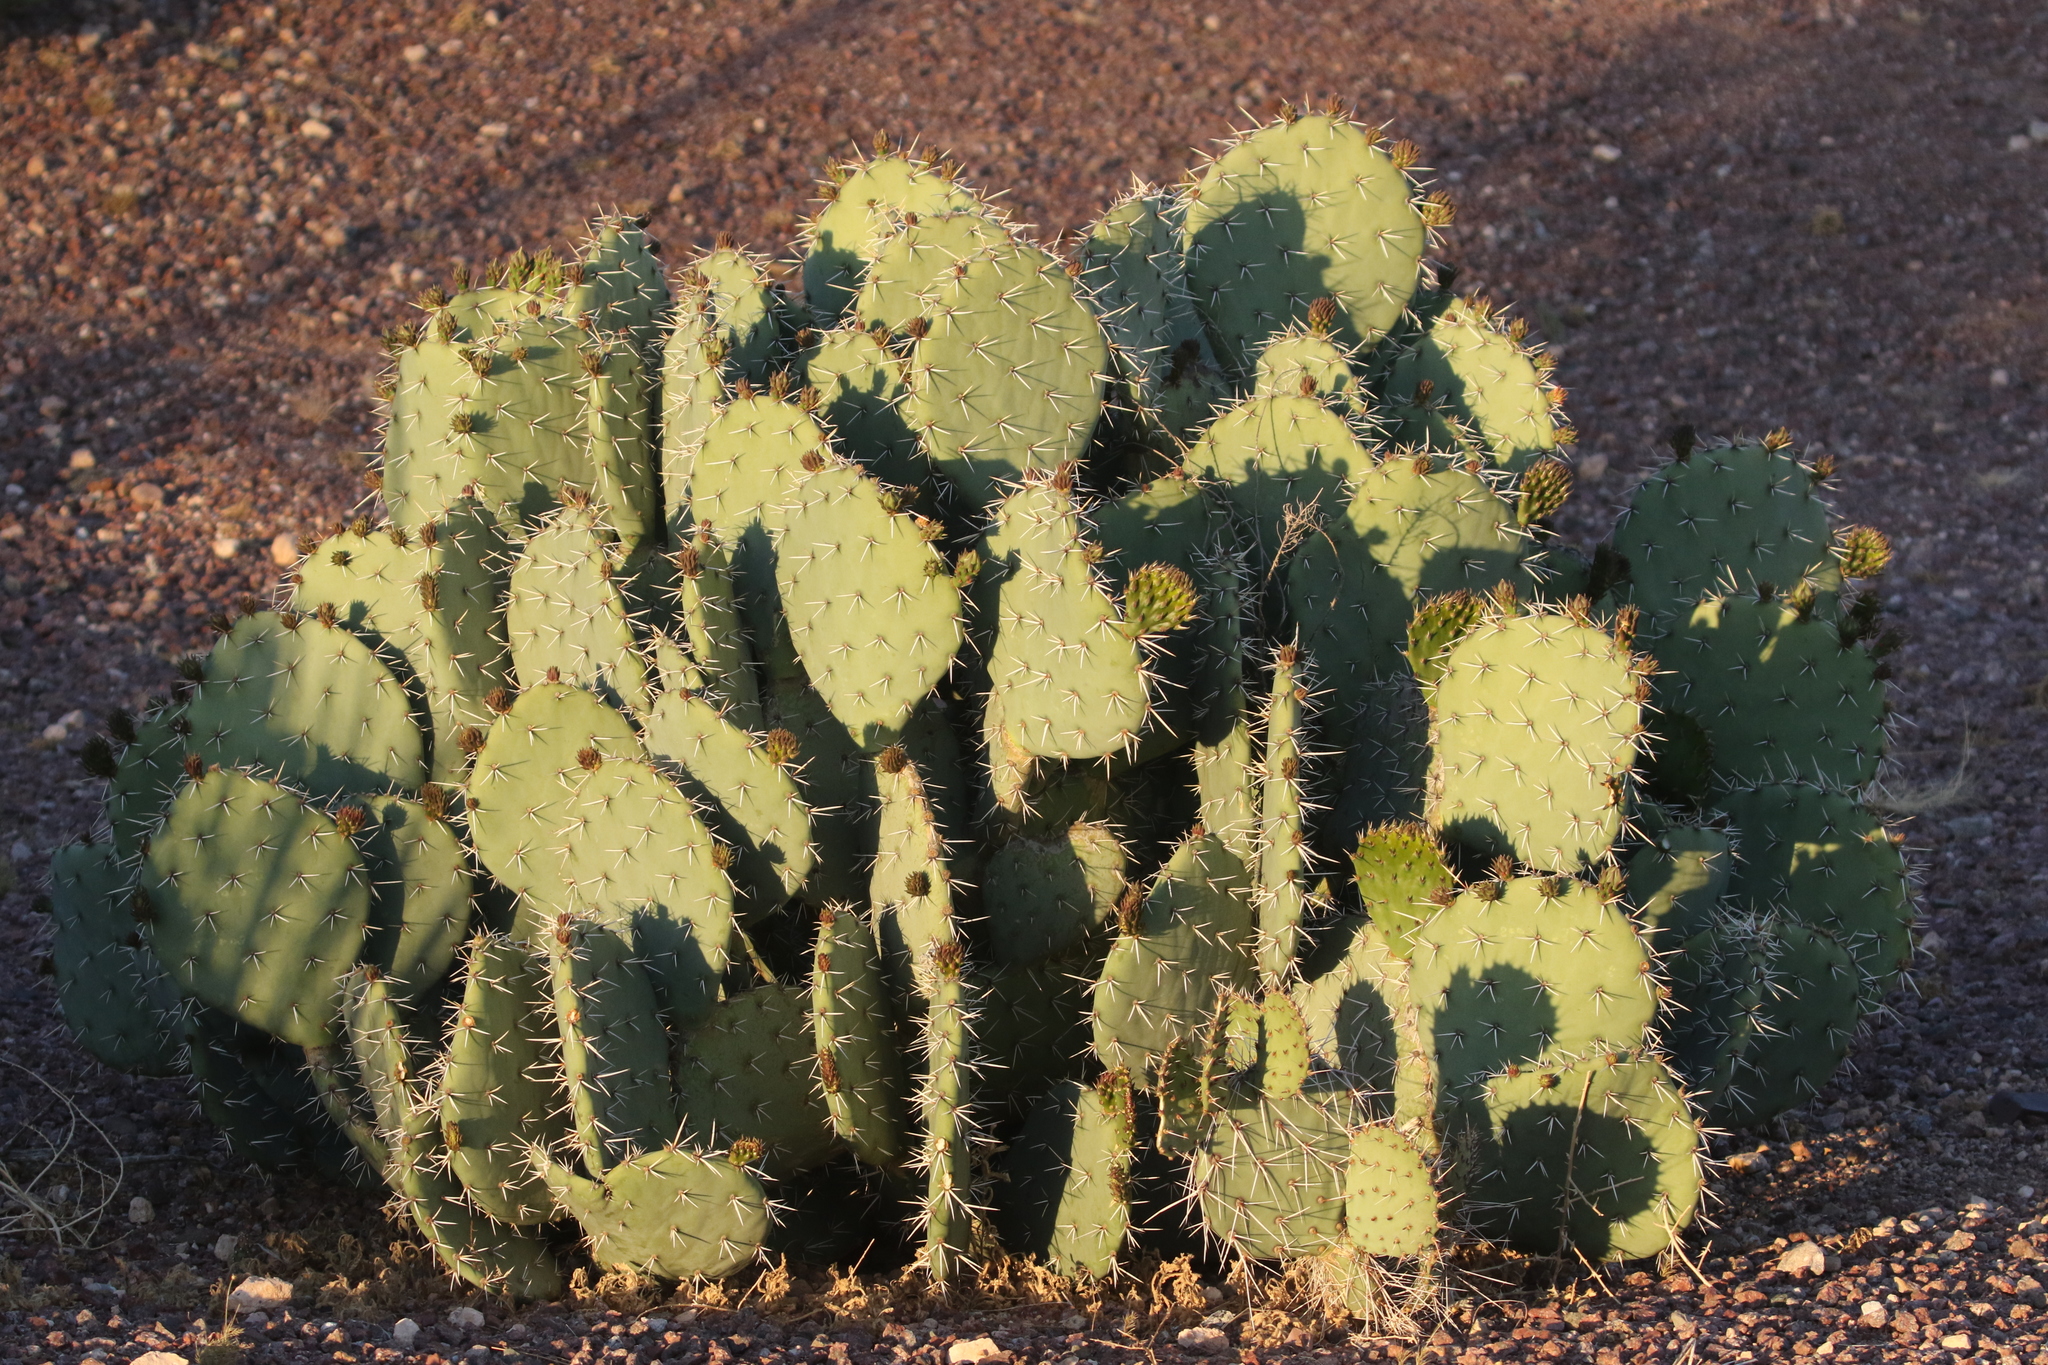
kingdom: Plantae
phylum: Tracheophyta
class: Magnoliopsida
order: Caryophyllales
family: Cactaceae
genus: Opuntia
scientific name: Opuntia engelmannii
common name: Cactus-apple
